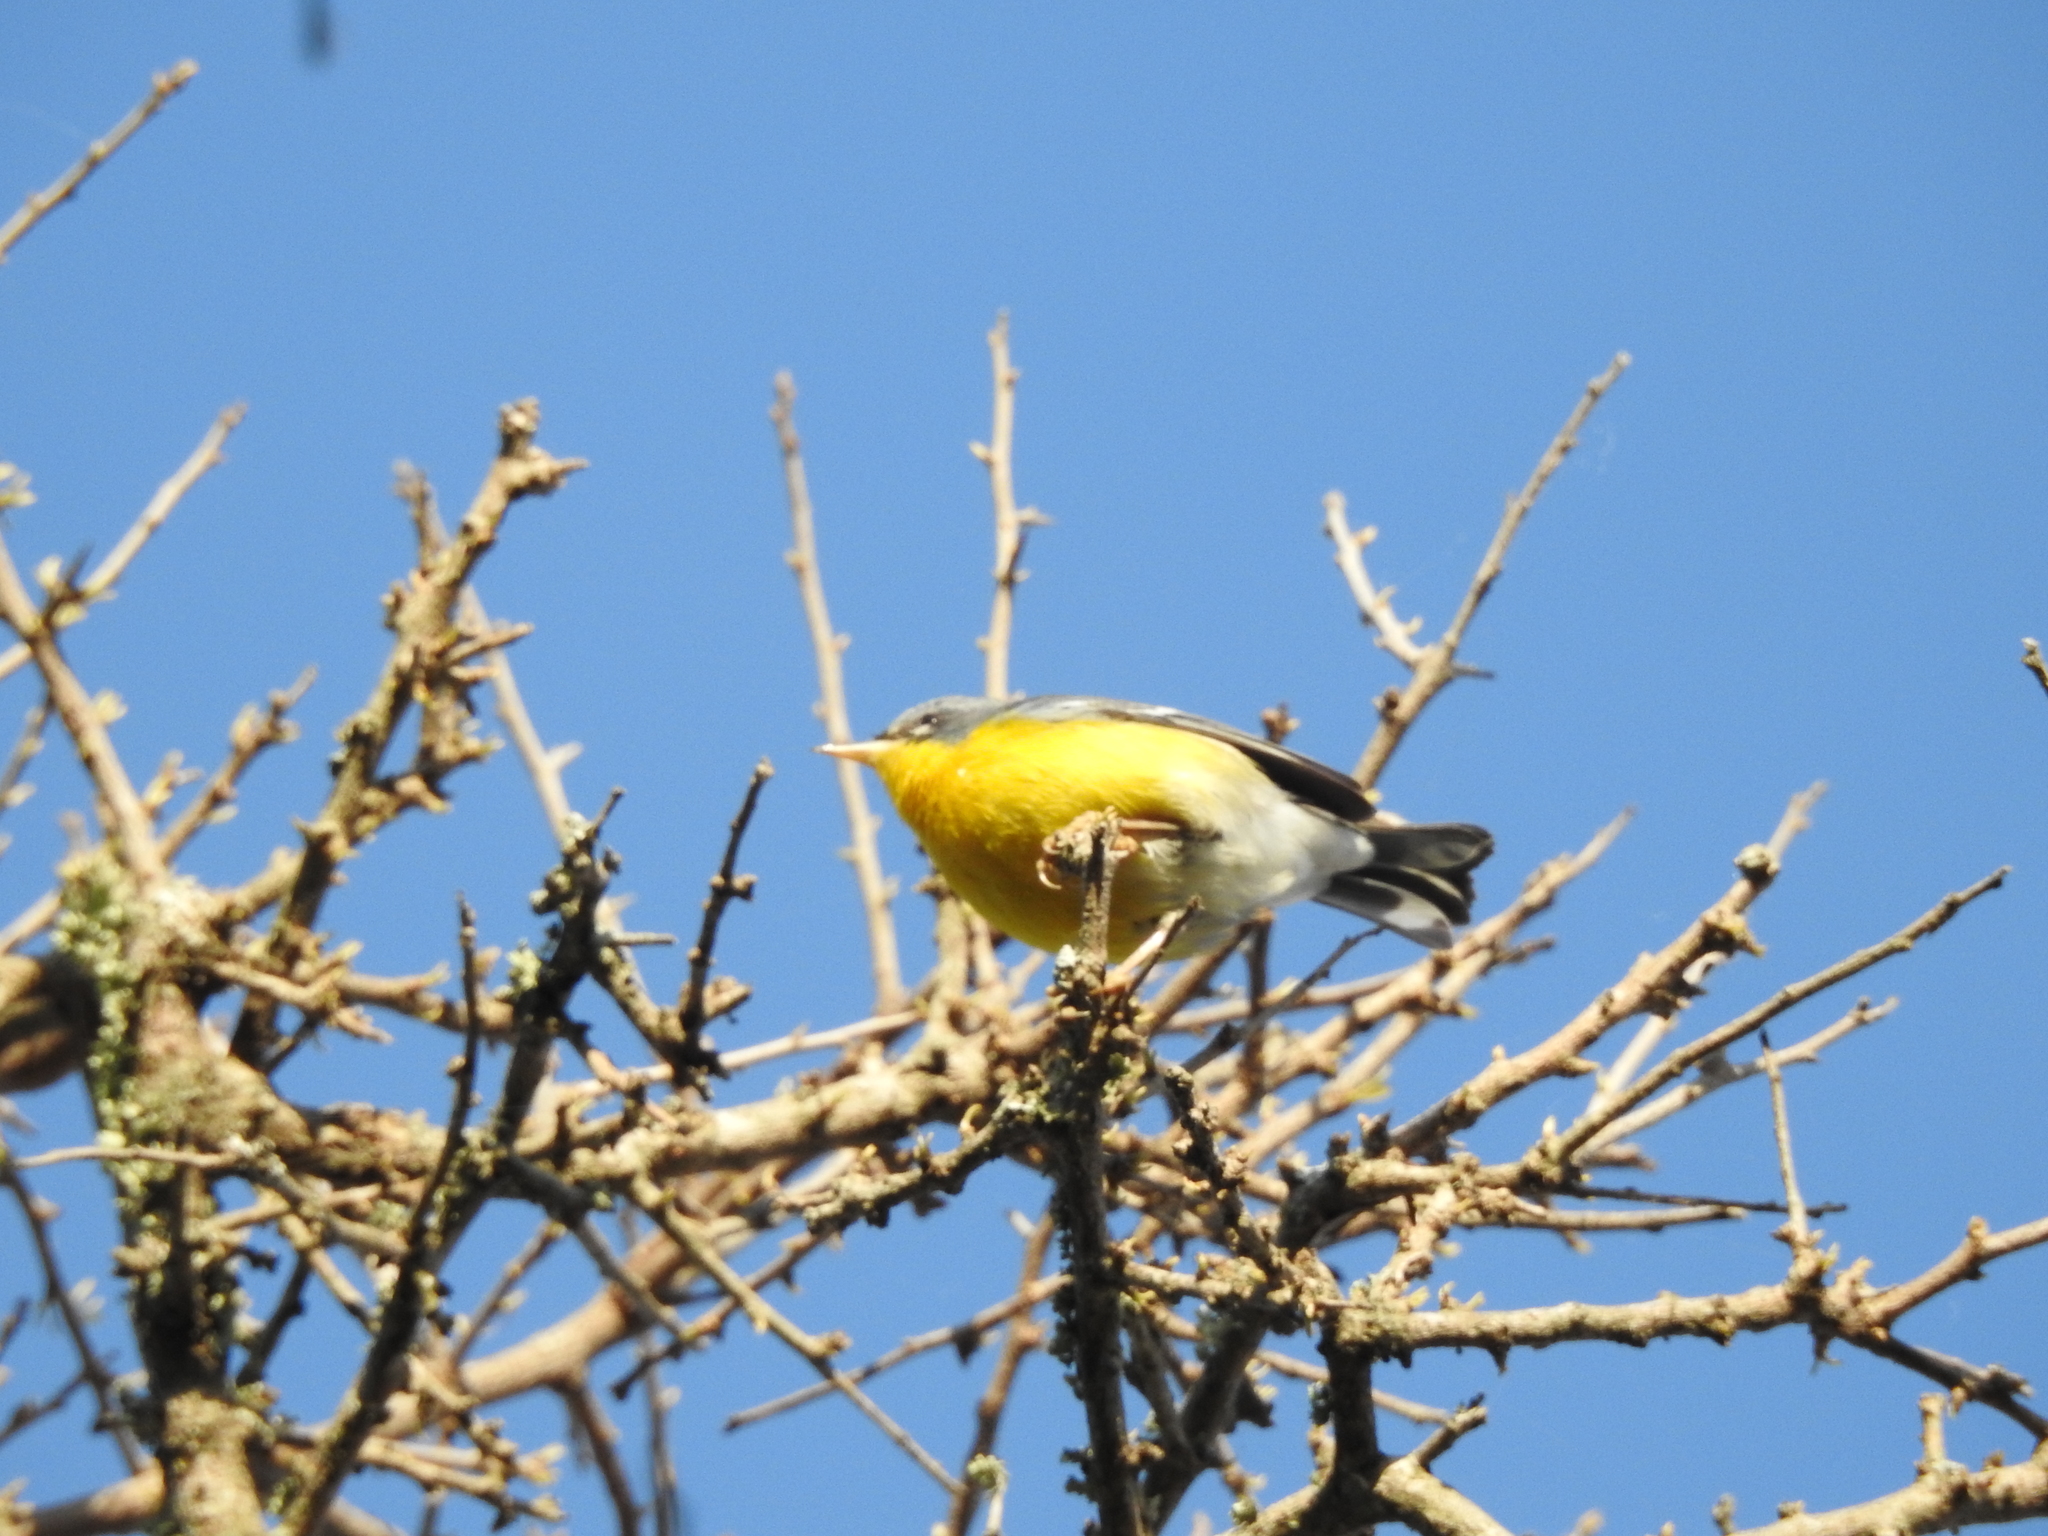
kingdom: Animalia
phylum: Chordata
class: Aves
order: Passeriformes
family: Parulidae
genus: Setophaga
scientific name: Setophaga pitiayumi
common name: Tropical parula
